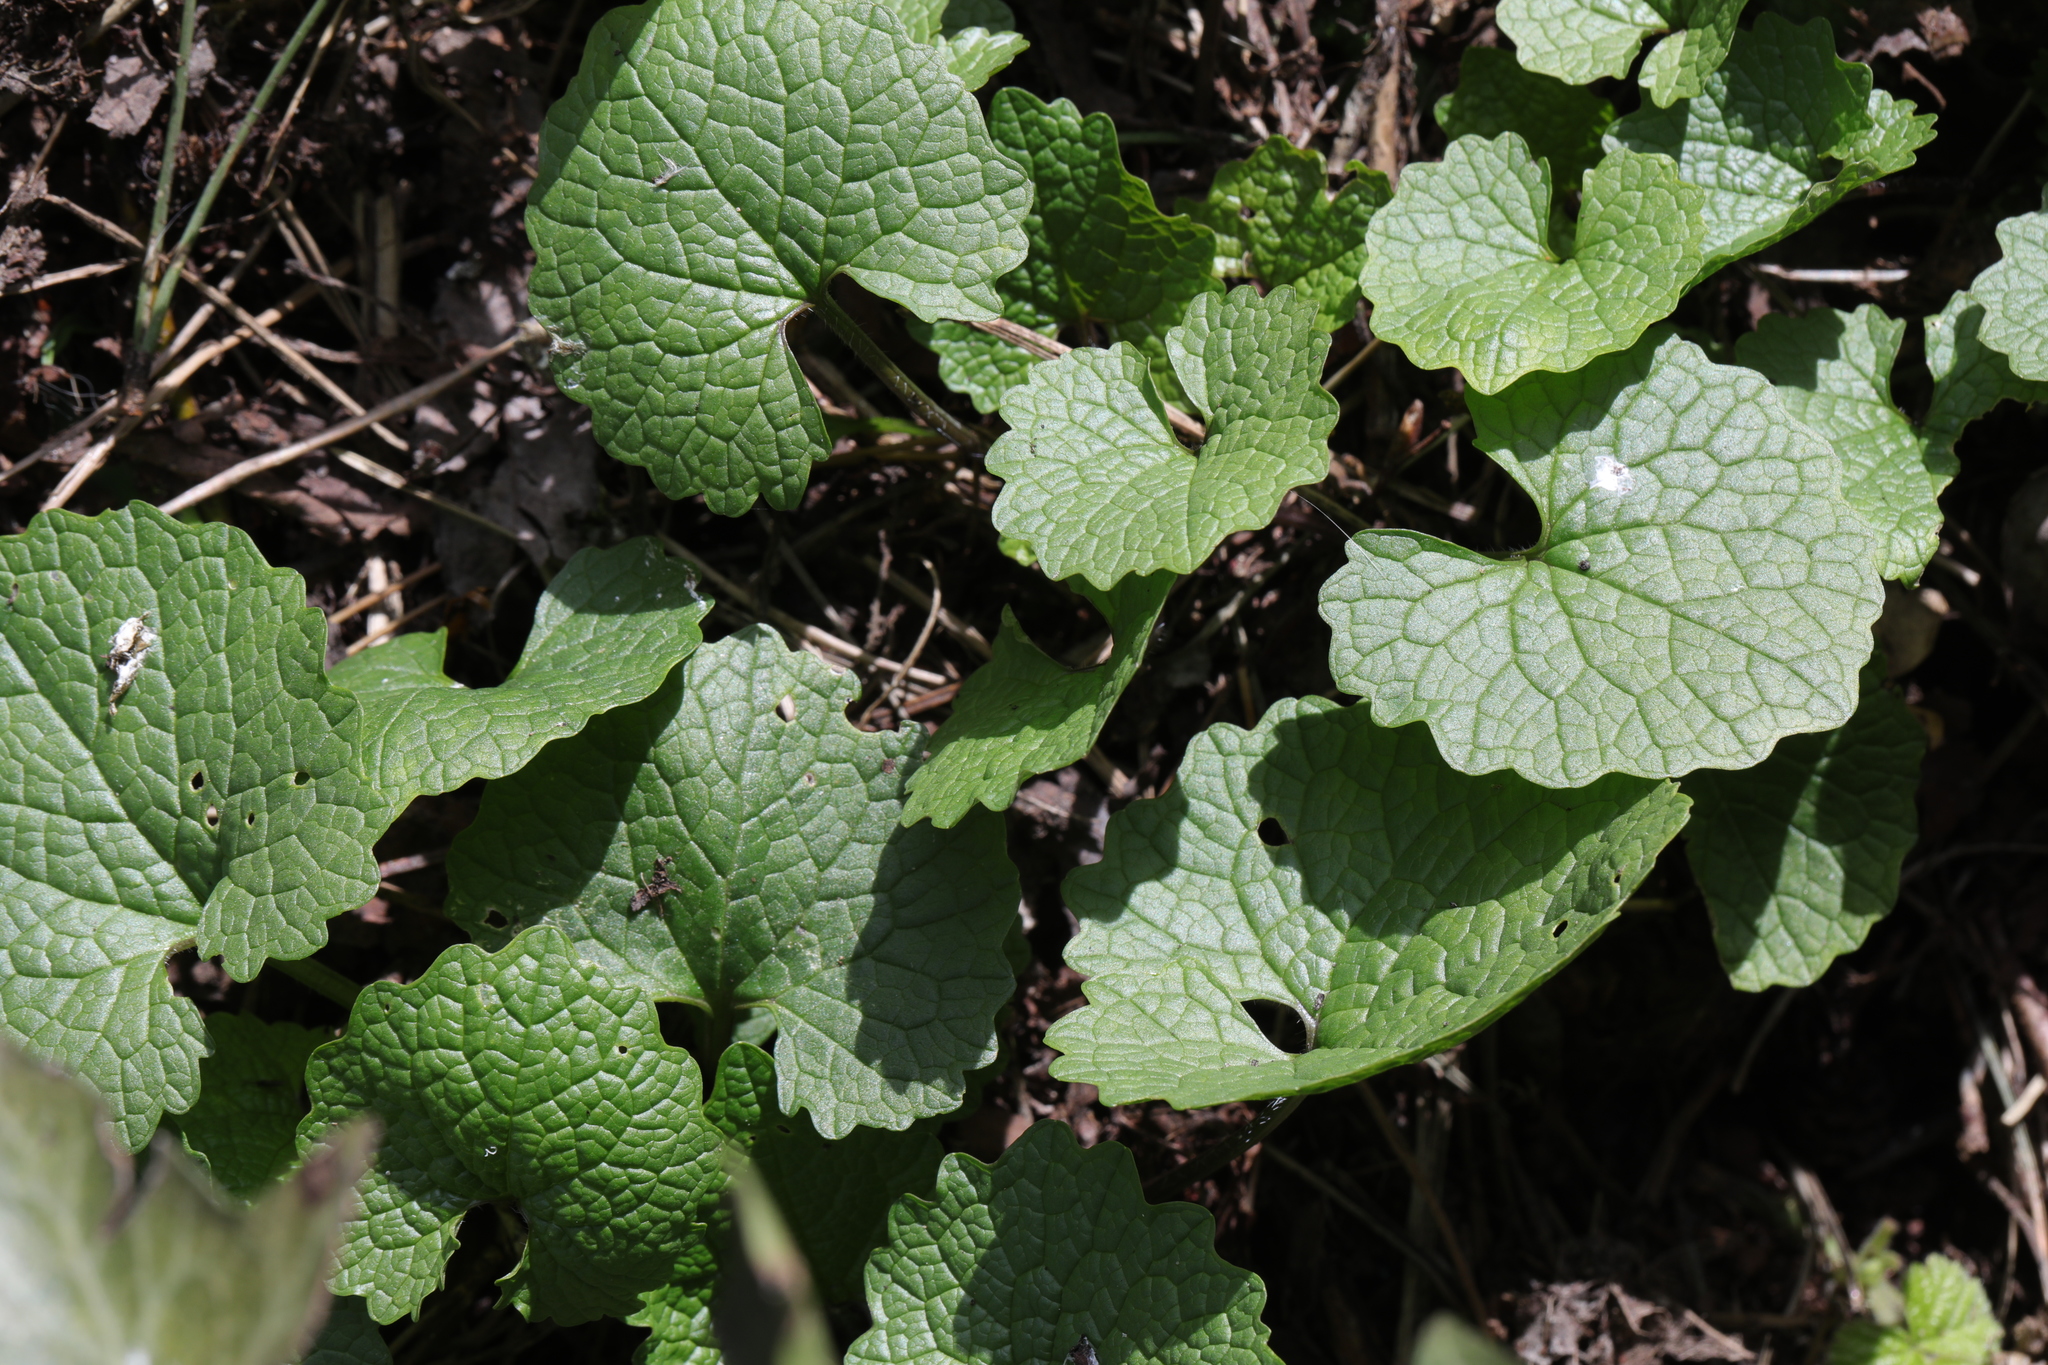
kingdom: Plantae
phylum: Tracheophyta
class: Magnoliopsida
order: Brassicales
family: Brassicaceae
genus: Alliaria
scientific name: Alliaria petiolata
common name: Garlic mustard
